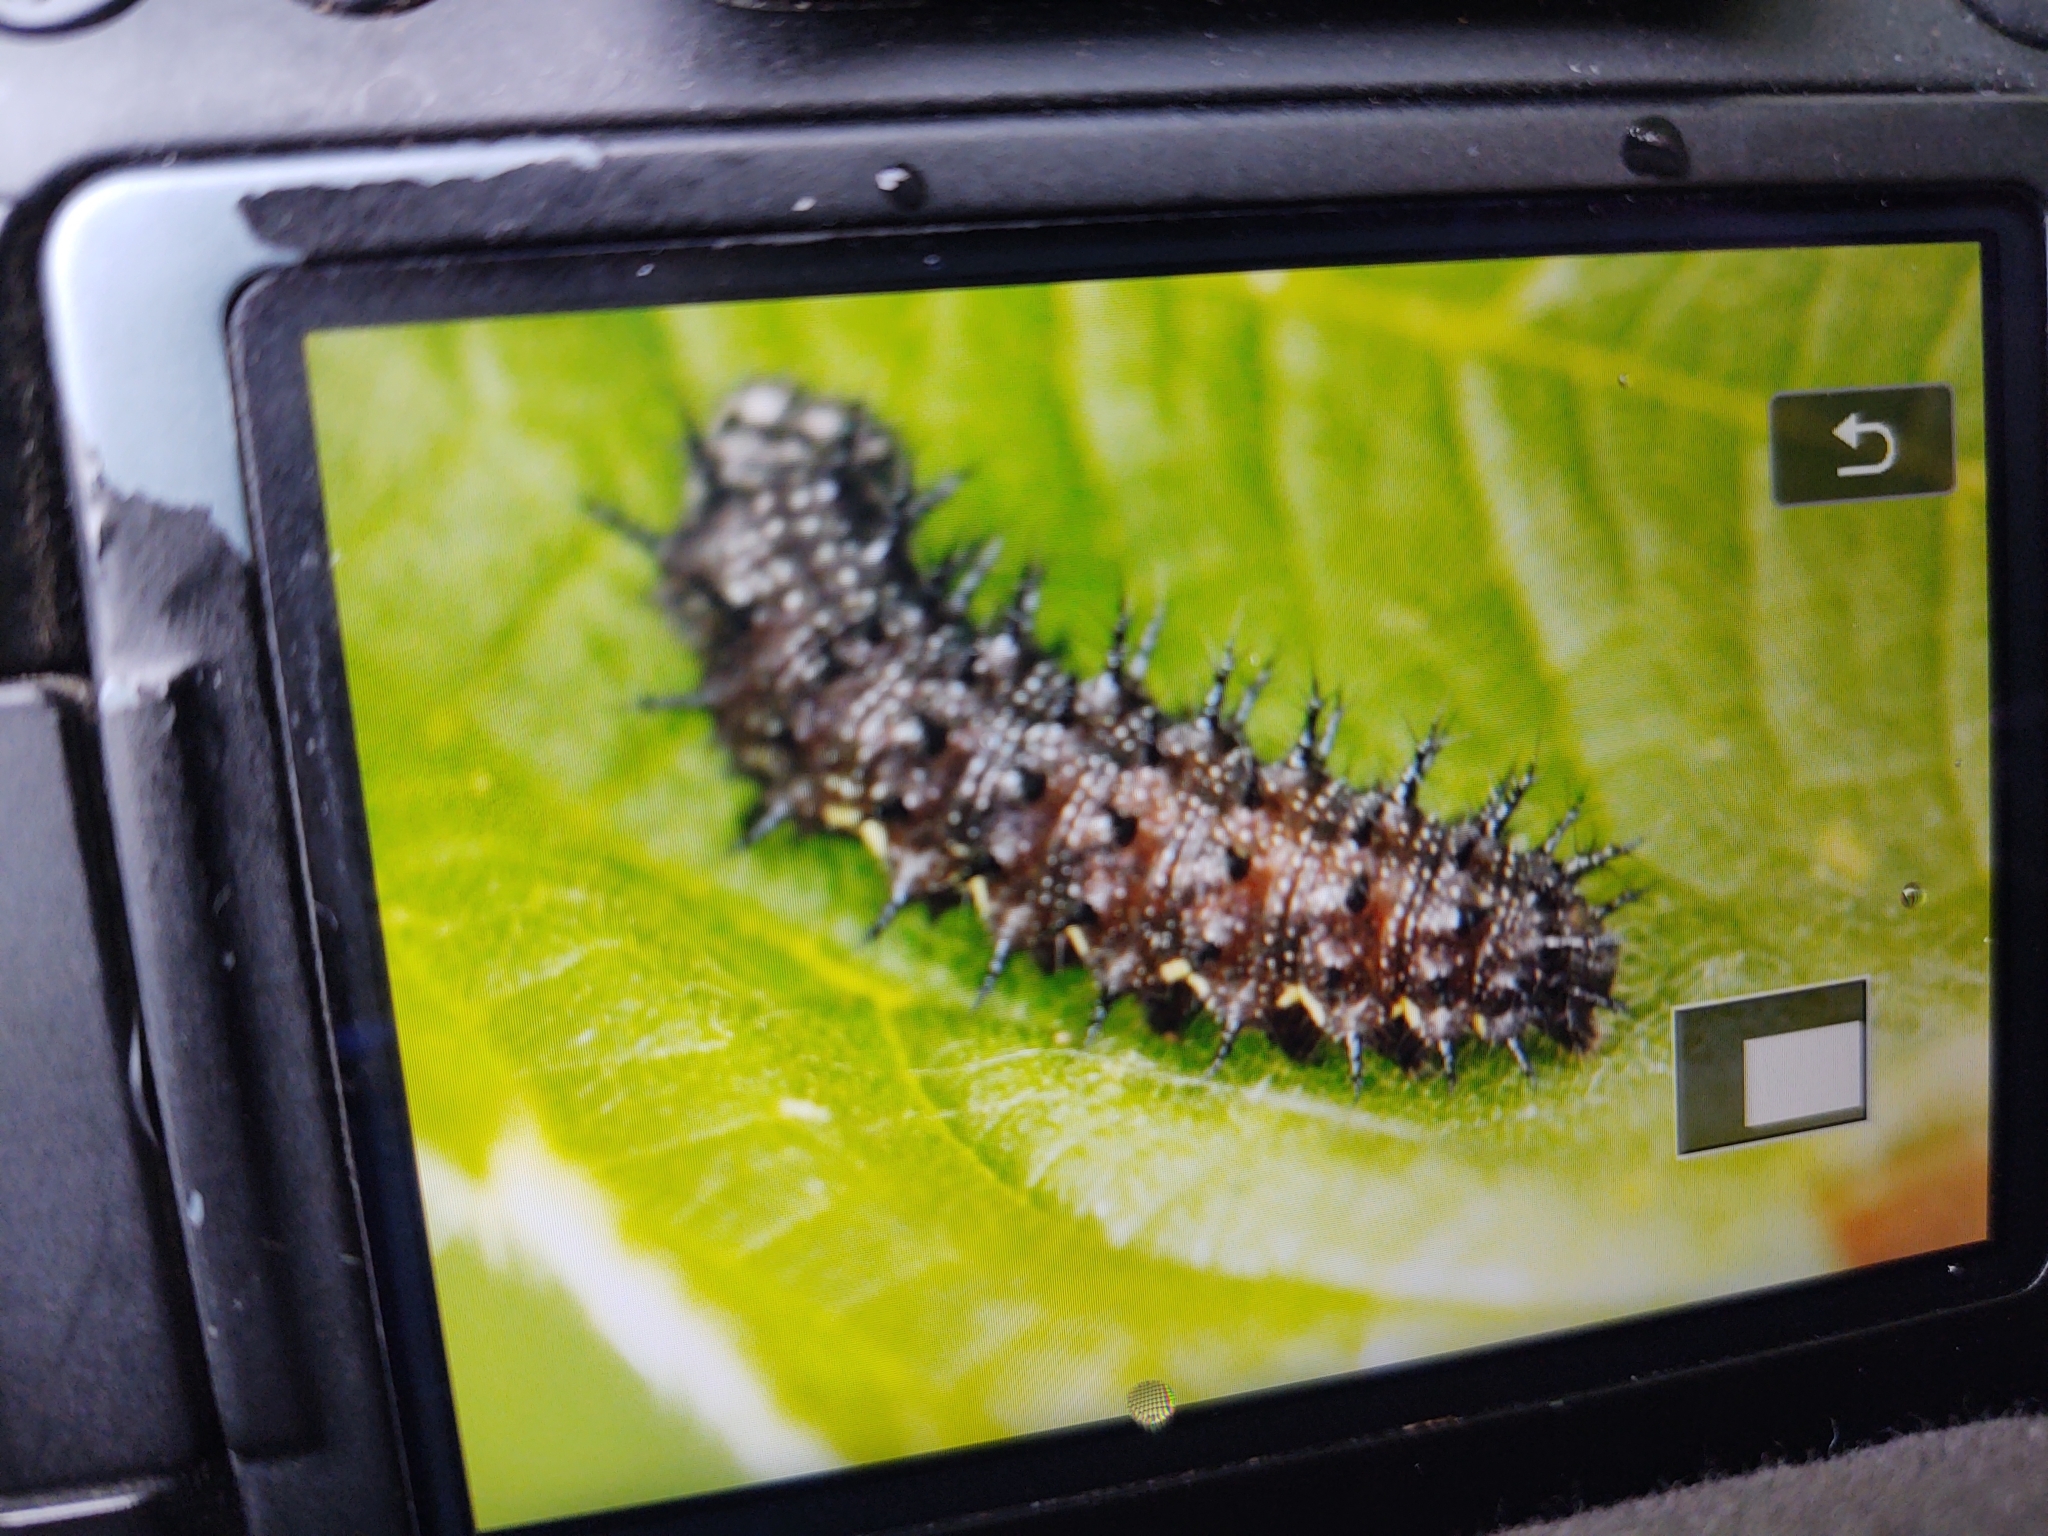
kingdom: Animalia
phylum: Arthropoda
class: Insecta
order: Lepidoptera
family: Nymphalidae
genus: Vanessa
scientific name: Vanessa atalanta
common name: Red admiral
